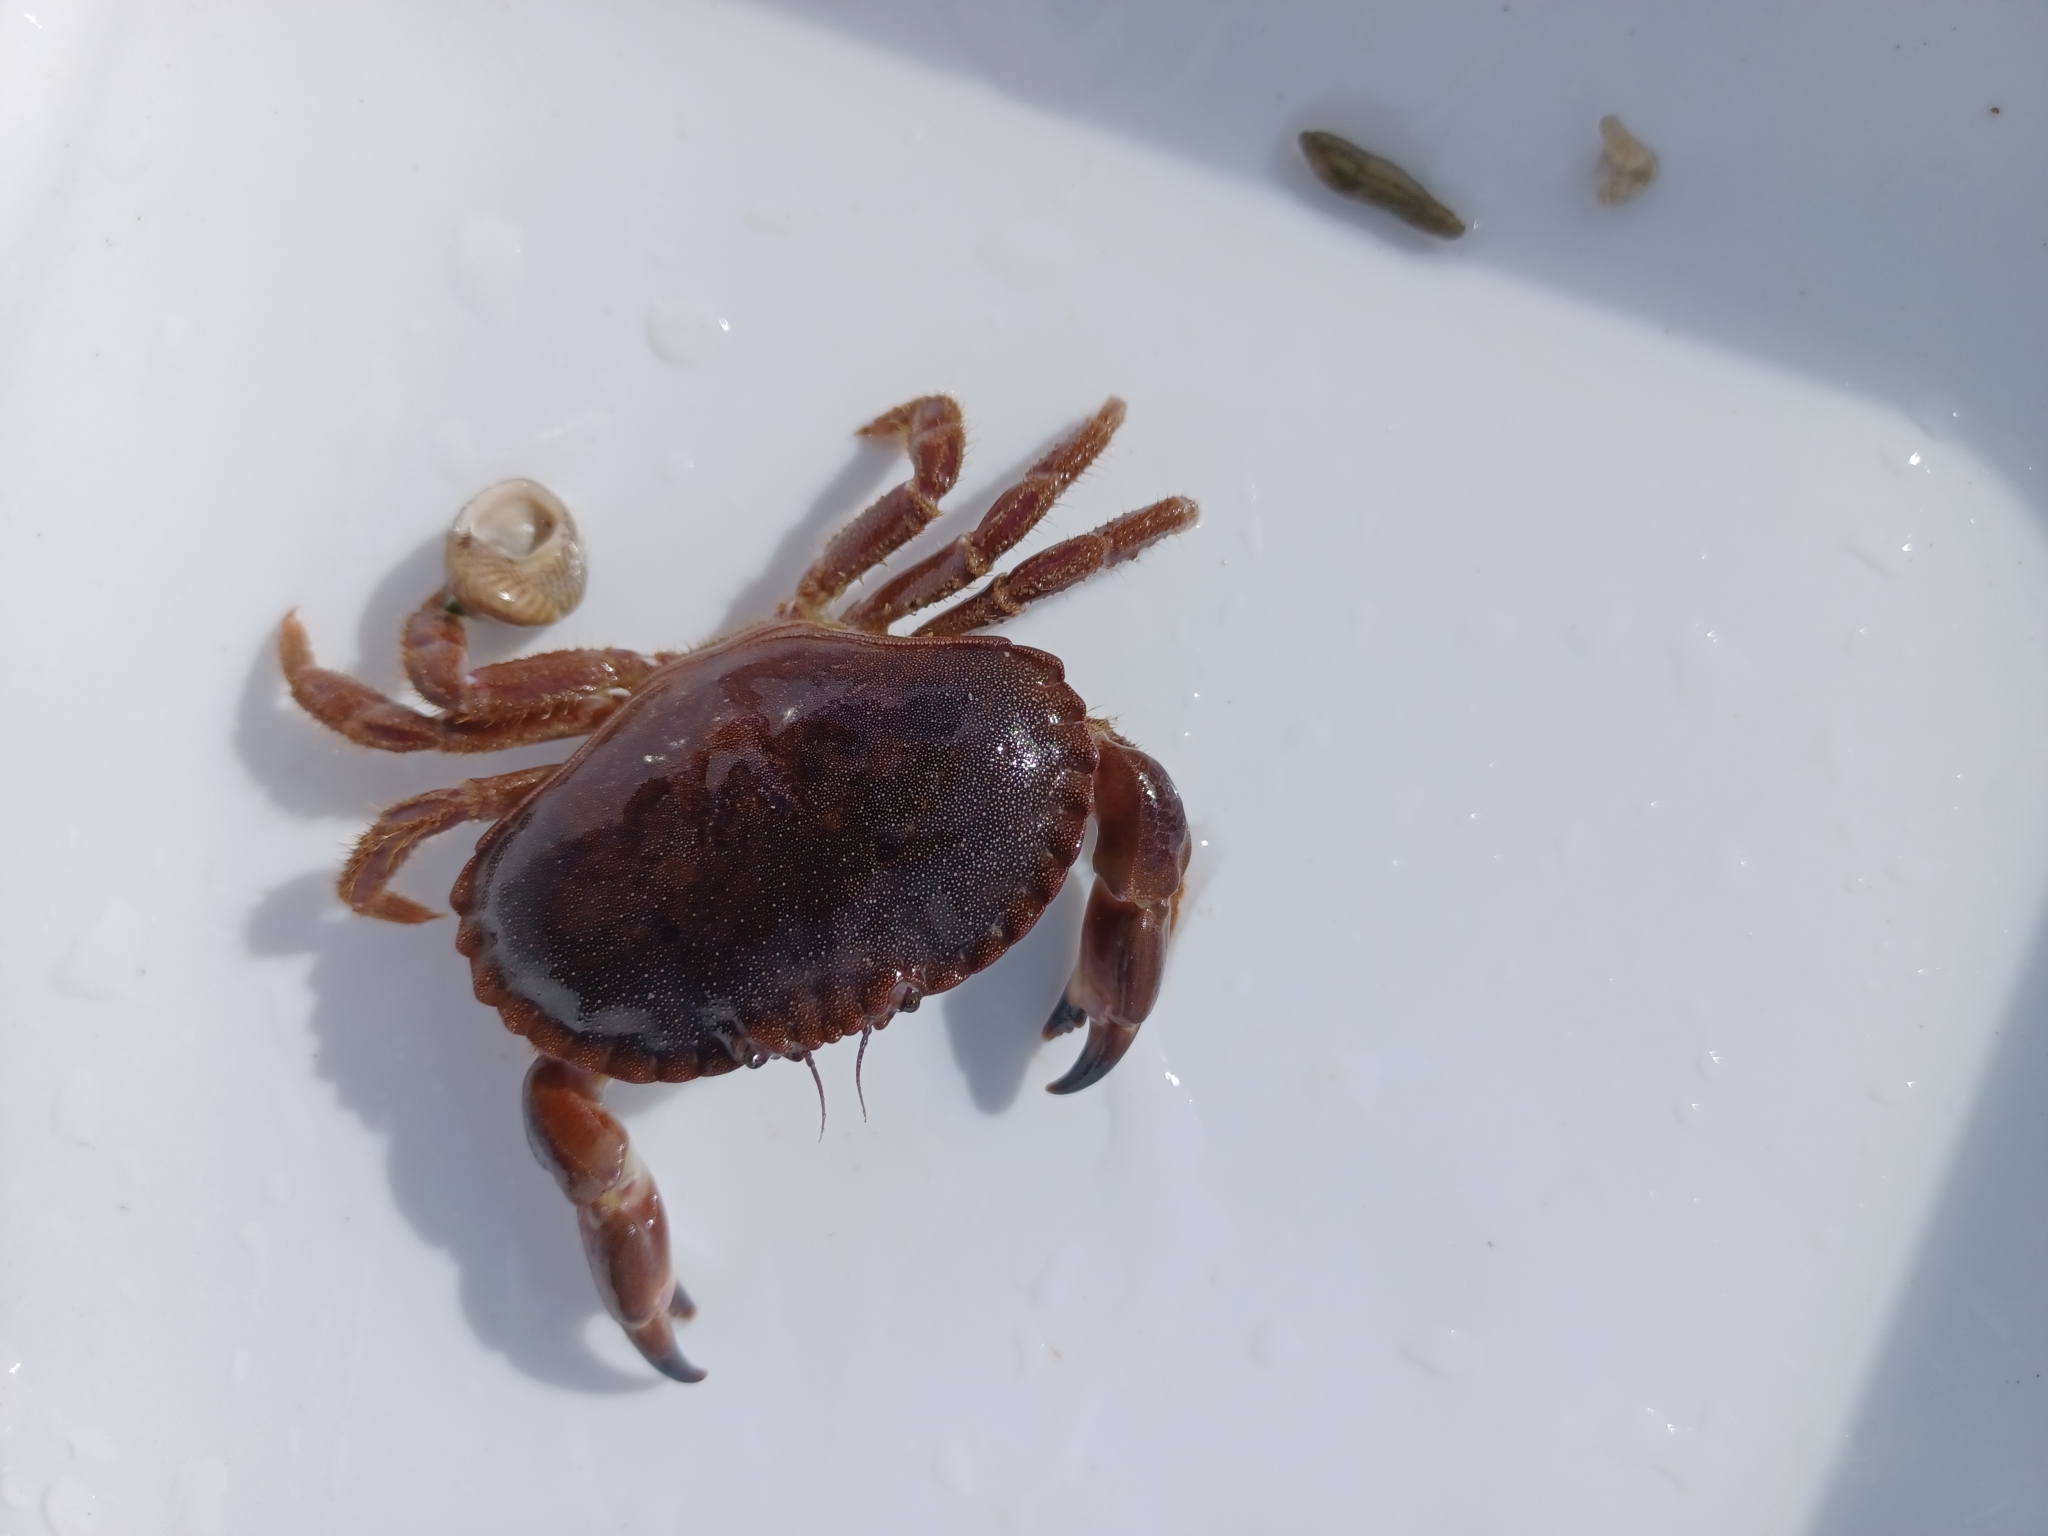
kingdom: Animalia
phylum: Arthropoda
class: Malacostraca
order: Decapoda
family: Cancridae
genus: Cancer
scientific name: Cancer pagurus
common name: Edible crab
